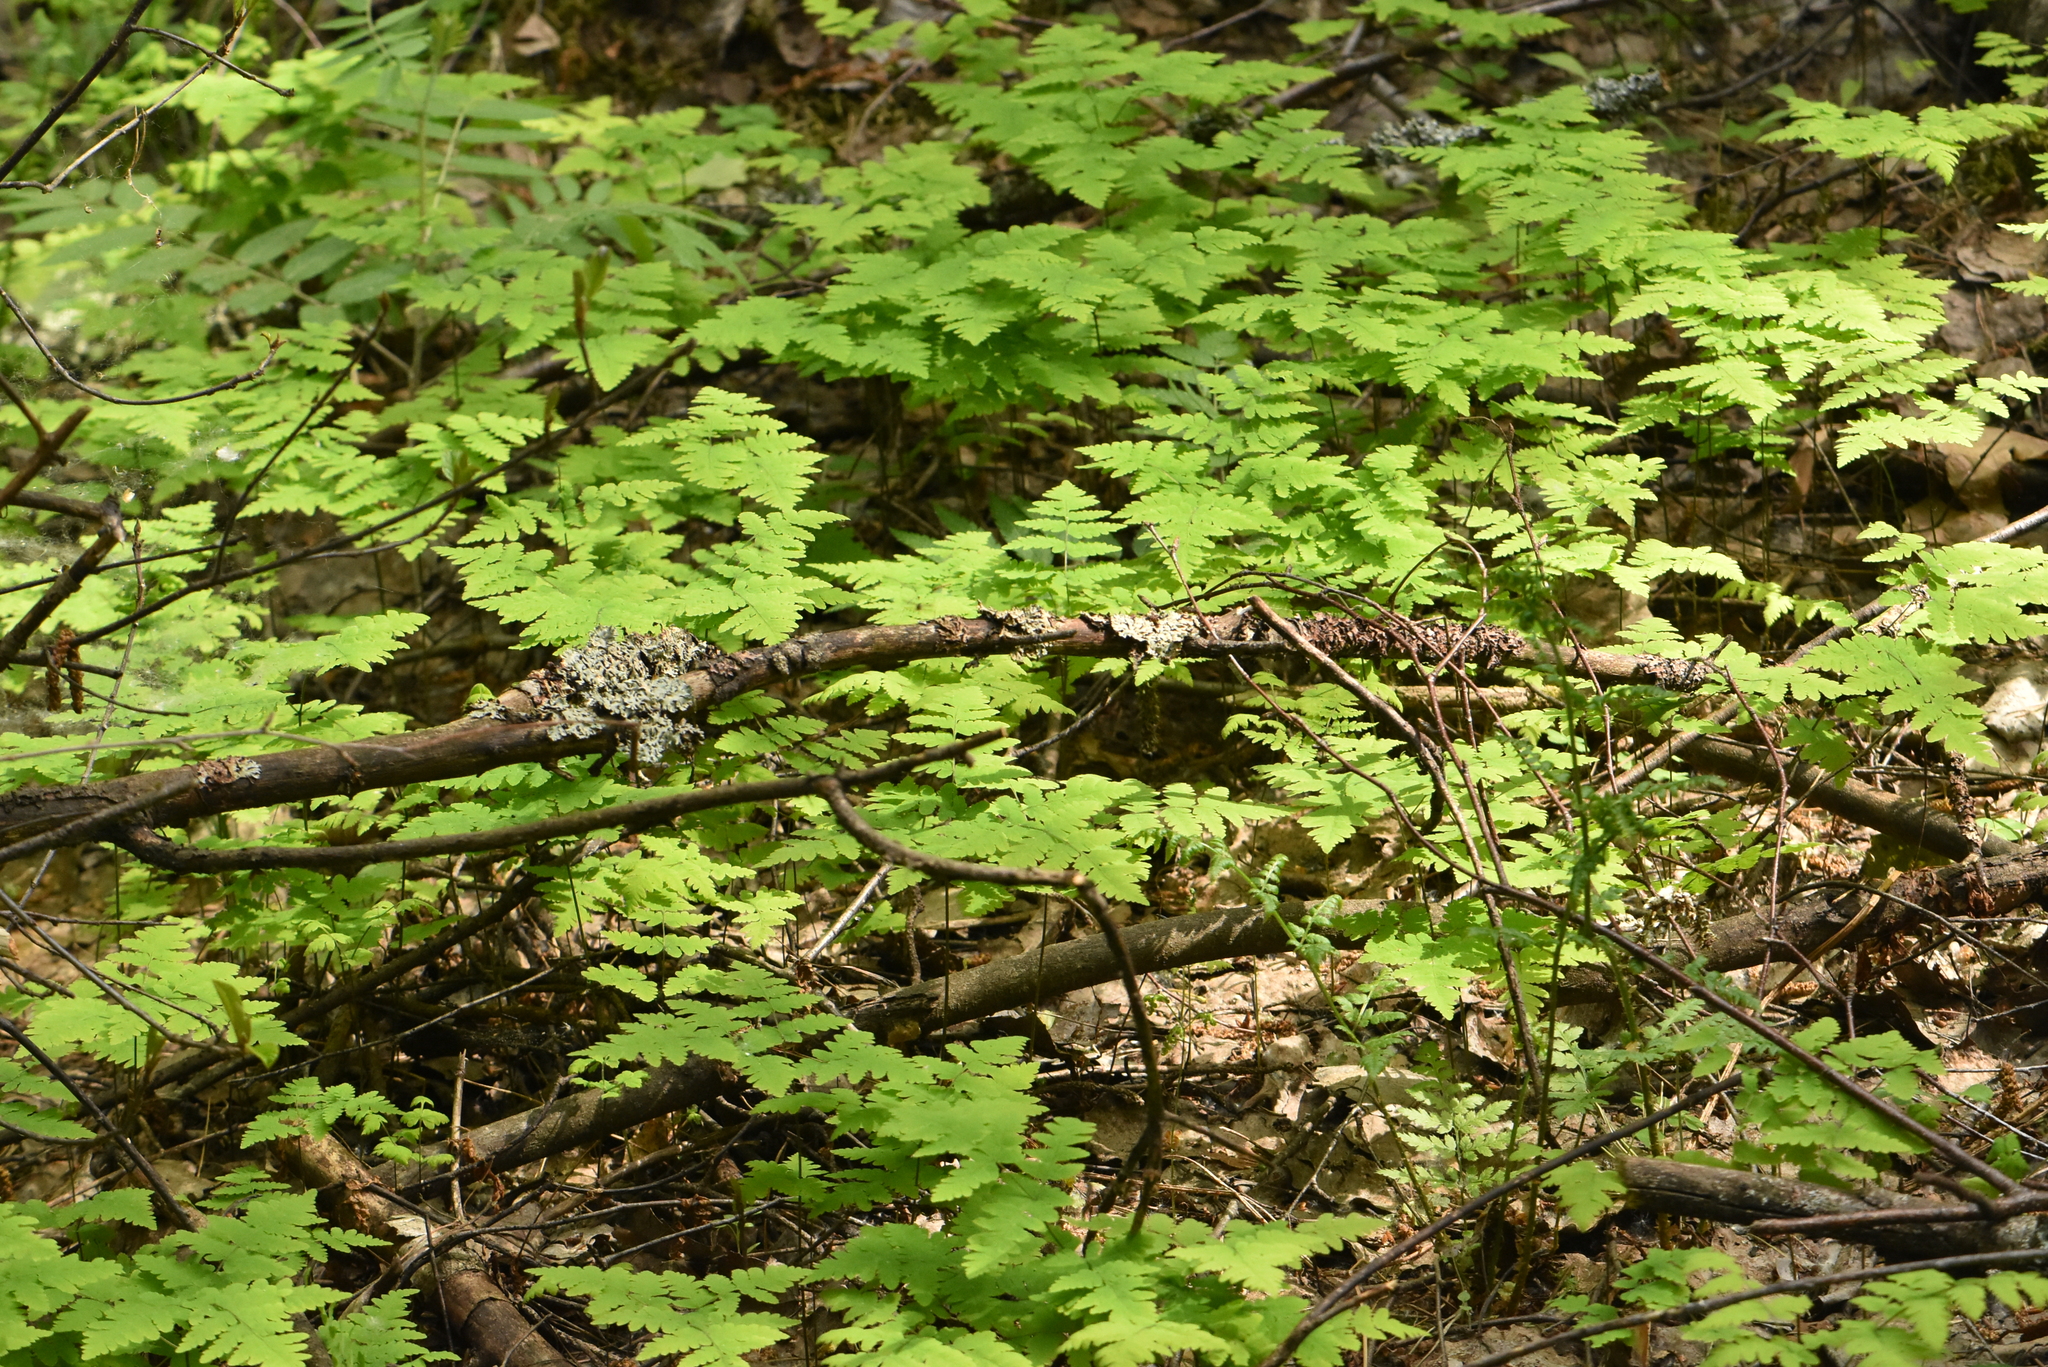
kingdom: Plantae
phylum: Tracheophyta
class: Polypodiopsida
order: Polypodiales
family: Cystopteridaceae
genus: Gymnocarpium
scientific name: Gymnocarpium dryopteris
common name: Oak fern
